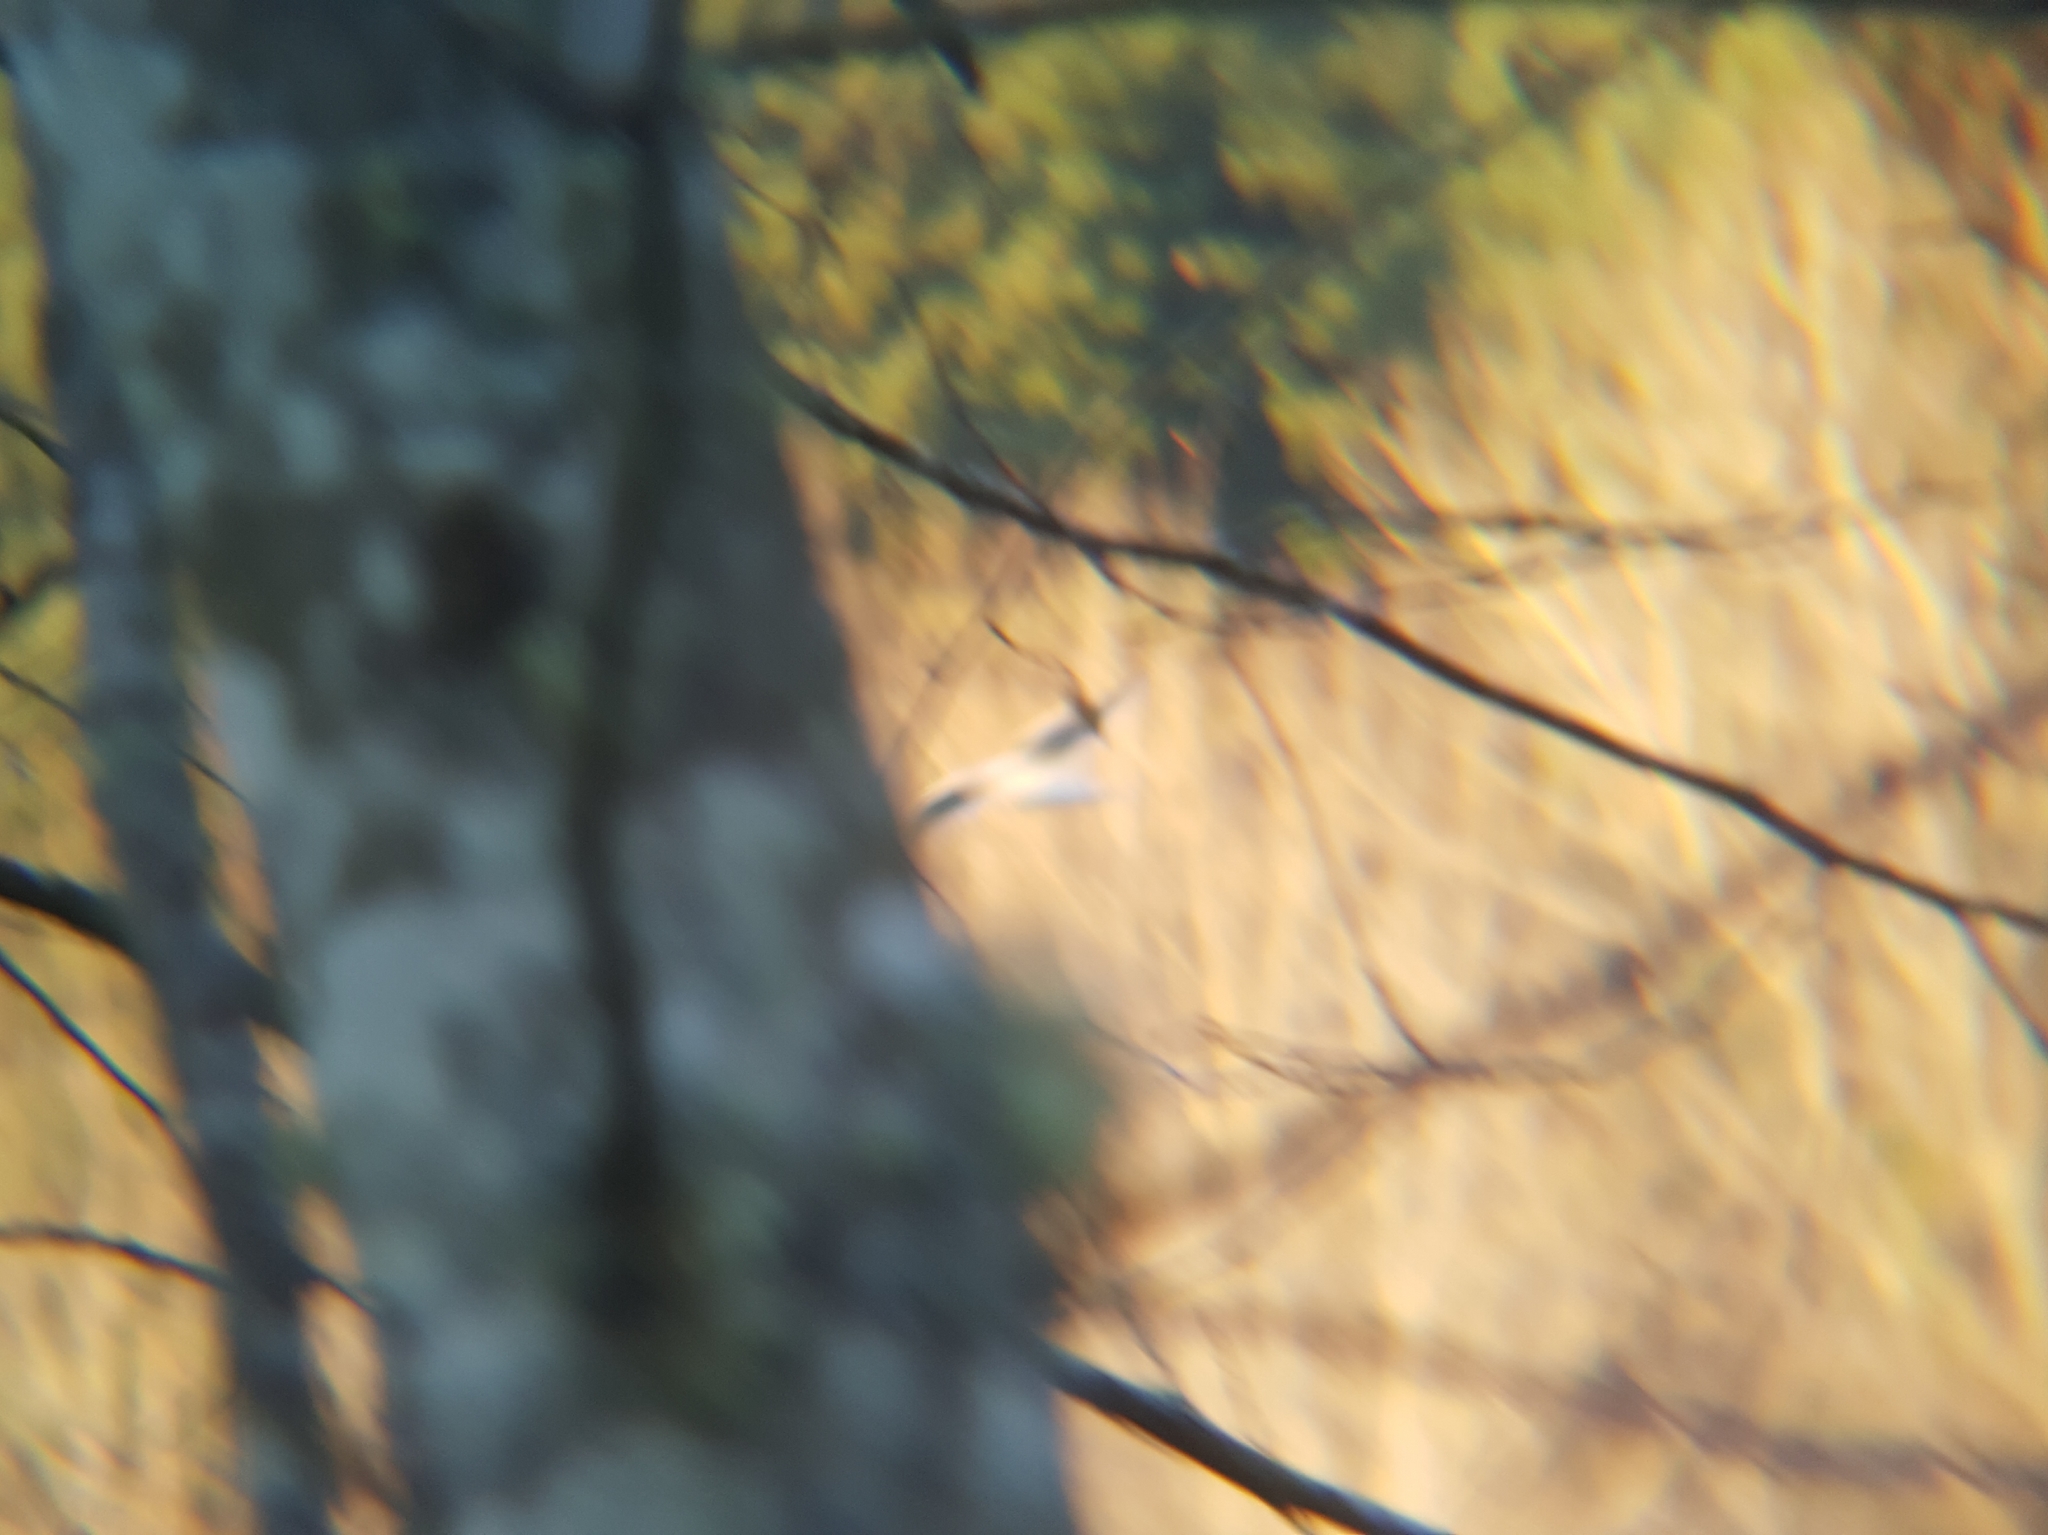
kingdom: Animalia
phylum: Chordata
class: Aves
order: Charadriiformes
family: Laridae
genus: Larus
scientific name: Larus
